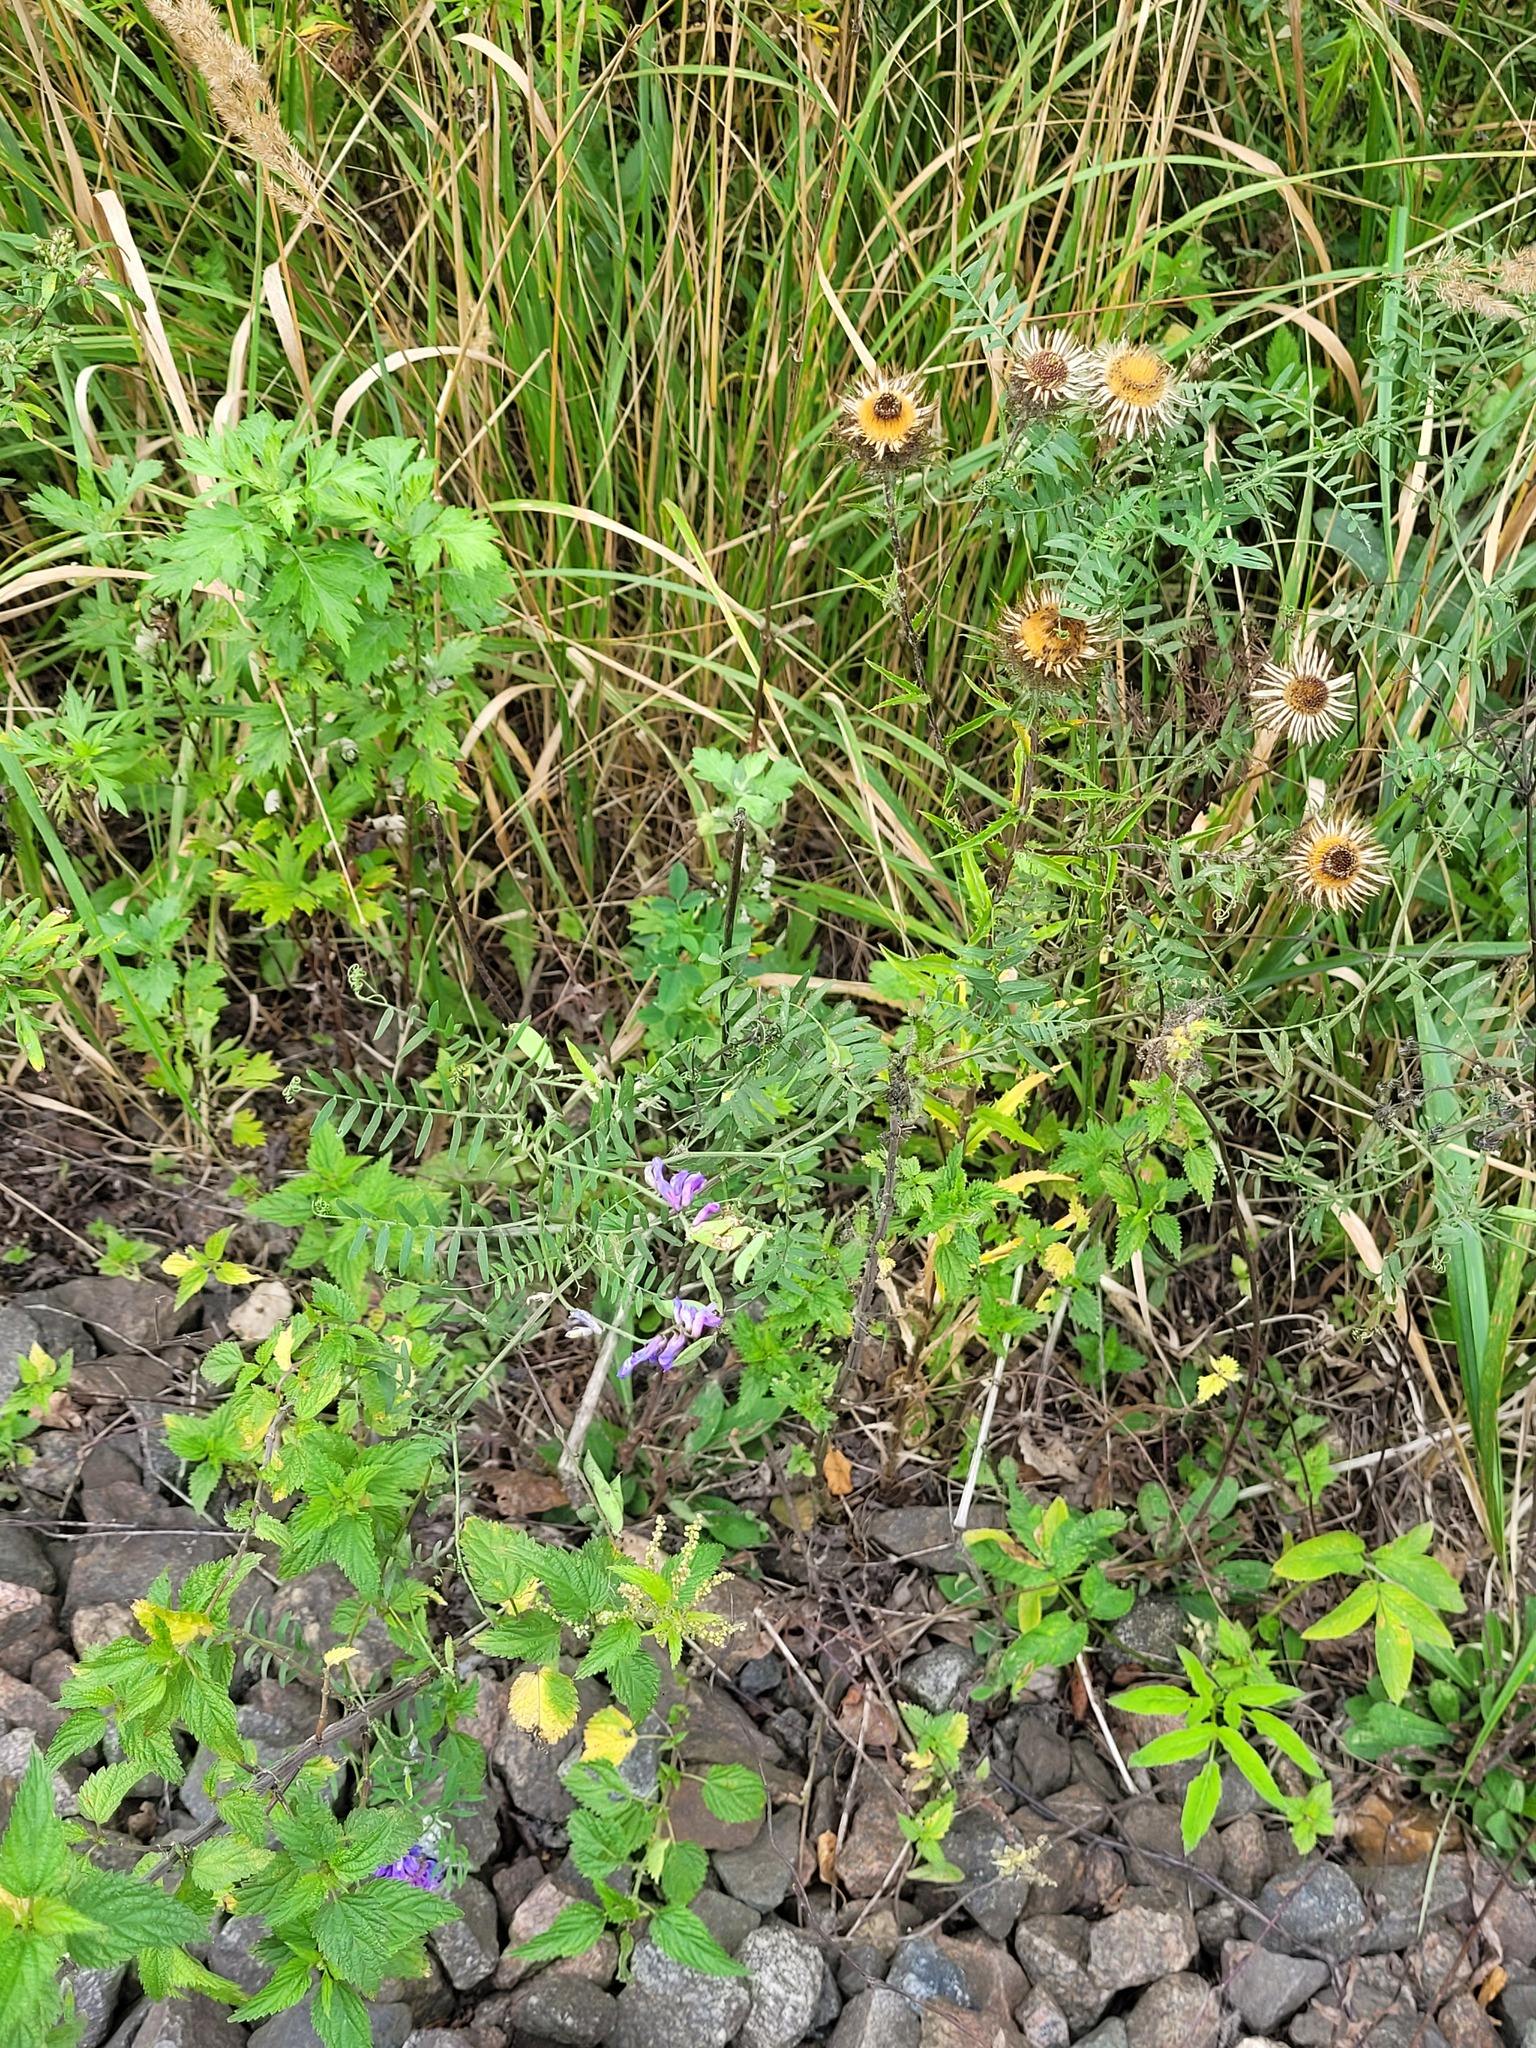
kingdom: Plantae
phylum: Tracheophyta
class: Magnoliopsida
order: Fabales
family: Fabaceae
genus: Vicia
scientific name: Vicia cracca
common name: Bird vetch
